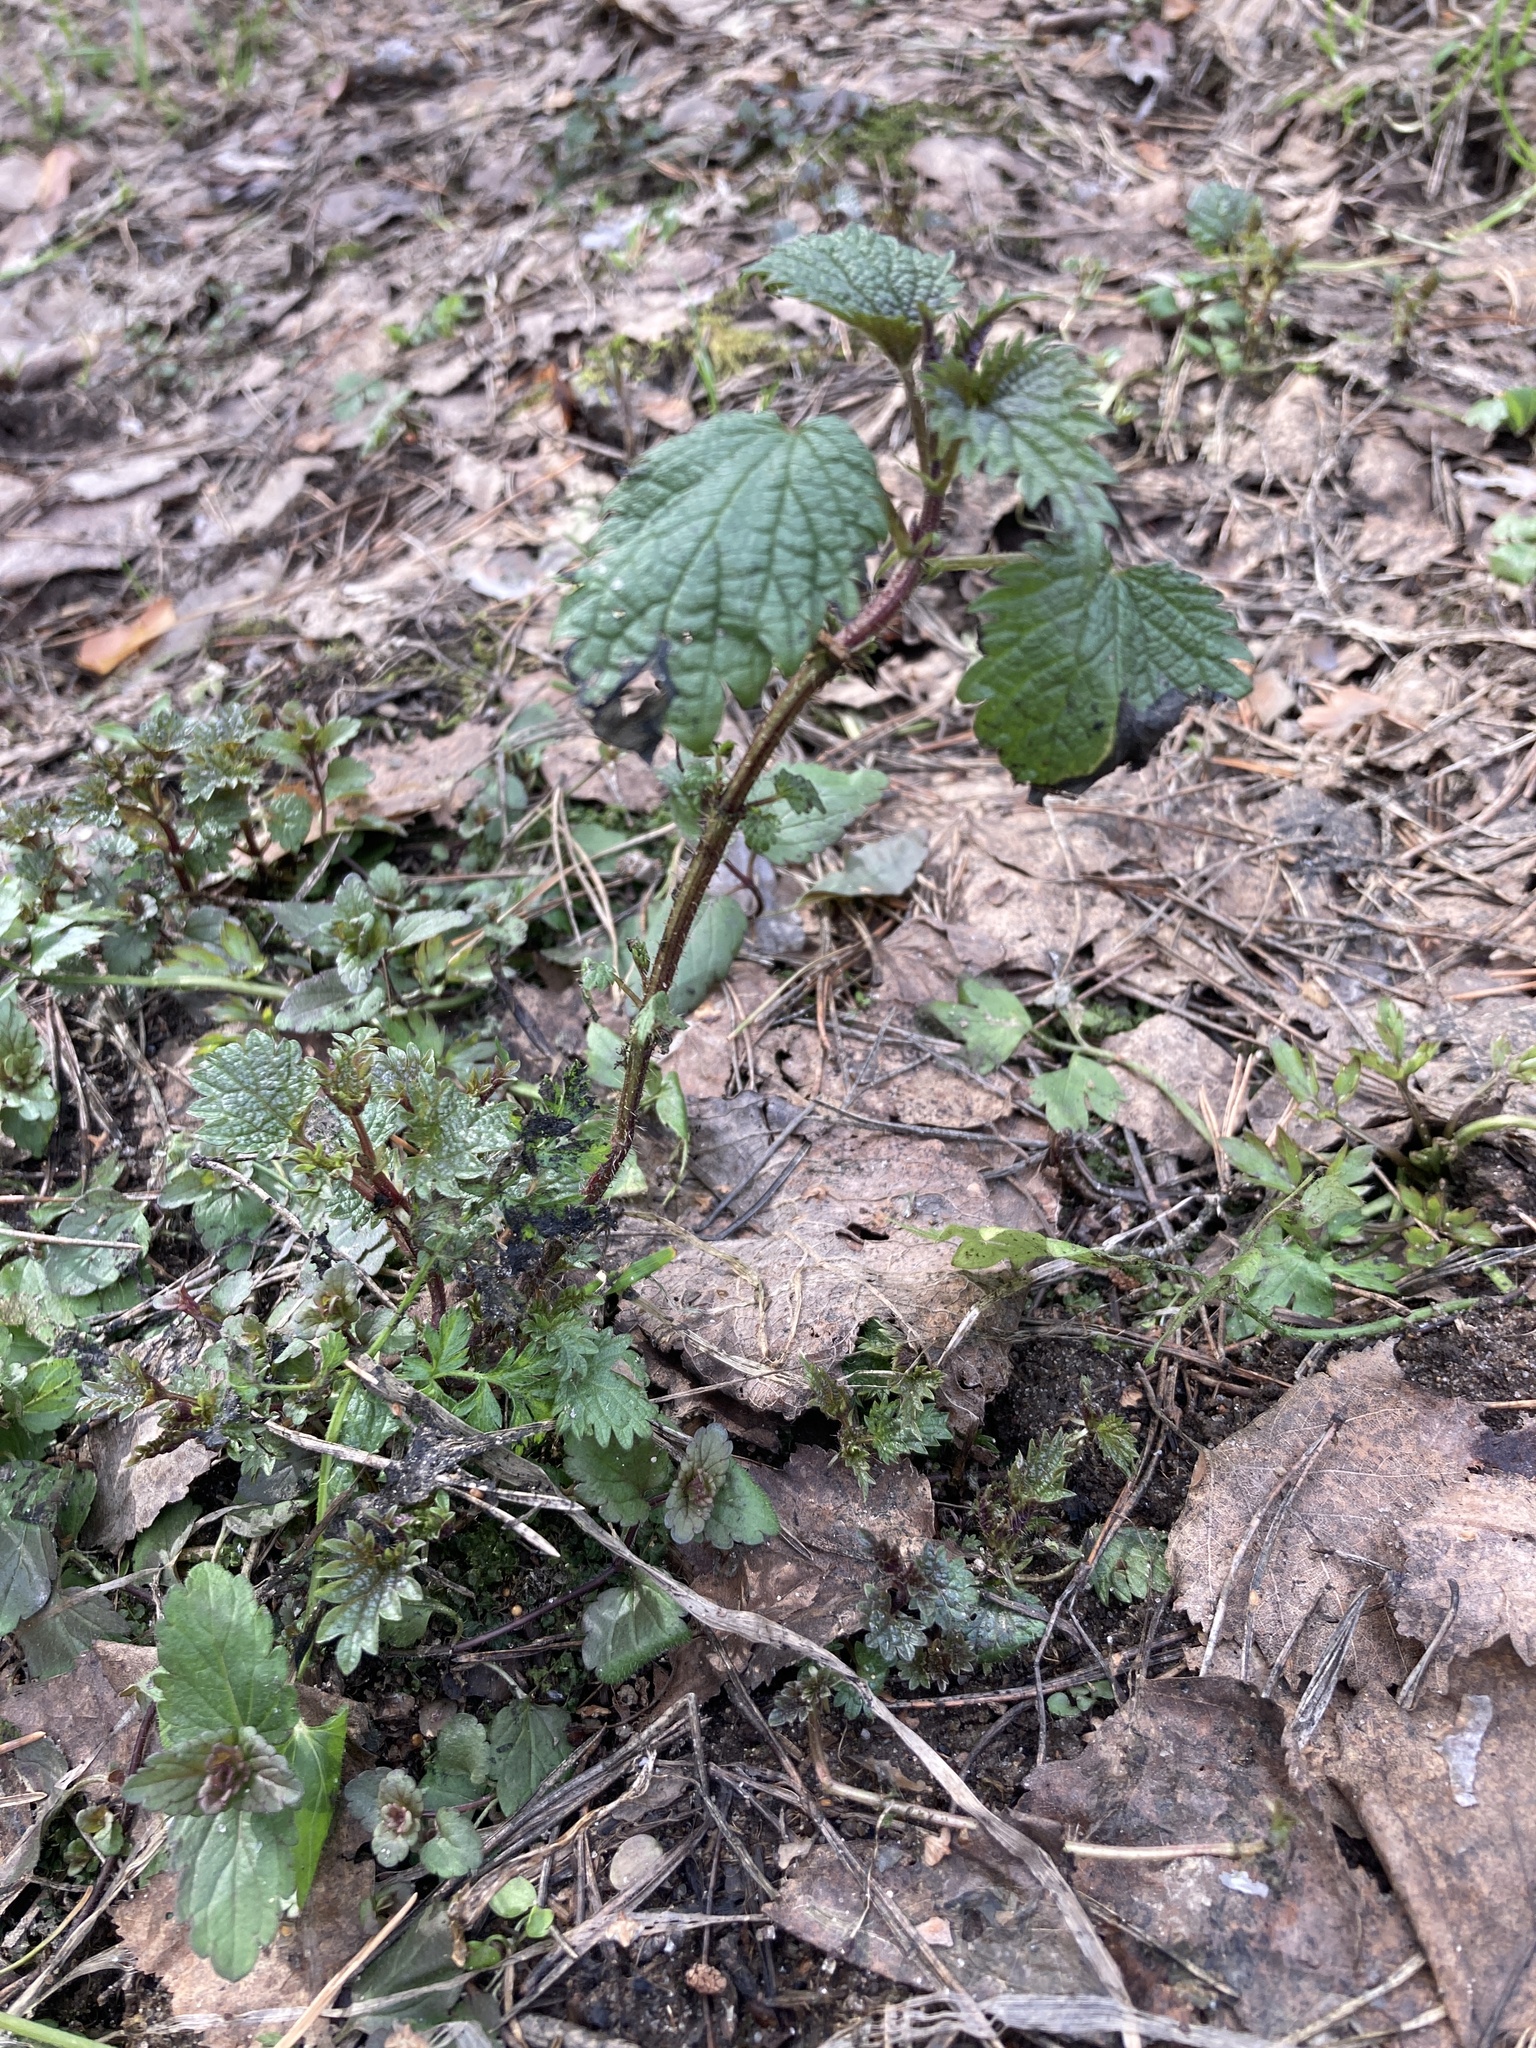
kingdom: Plantae
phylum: Tracheophyta
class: Magnoliopsida
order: Rosales
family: Urticaceae
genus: Urtica
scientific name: Urtica dioica
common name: Common nettle
